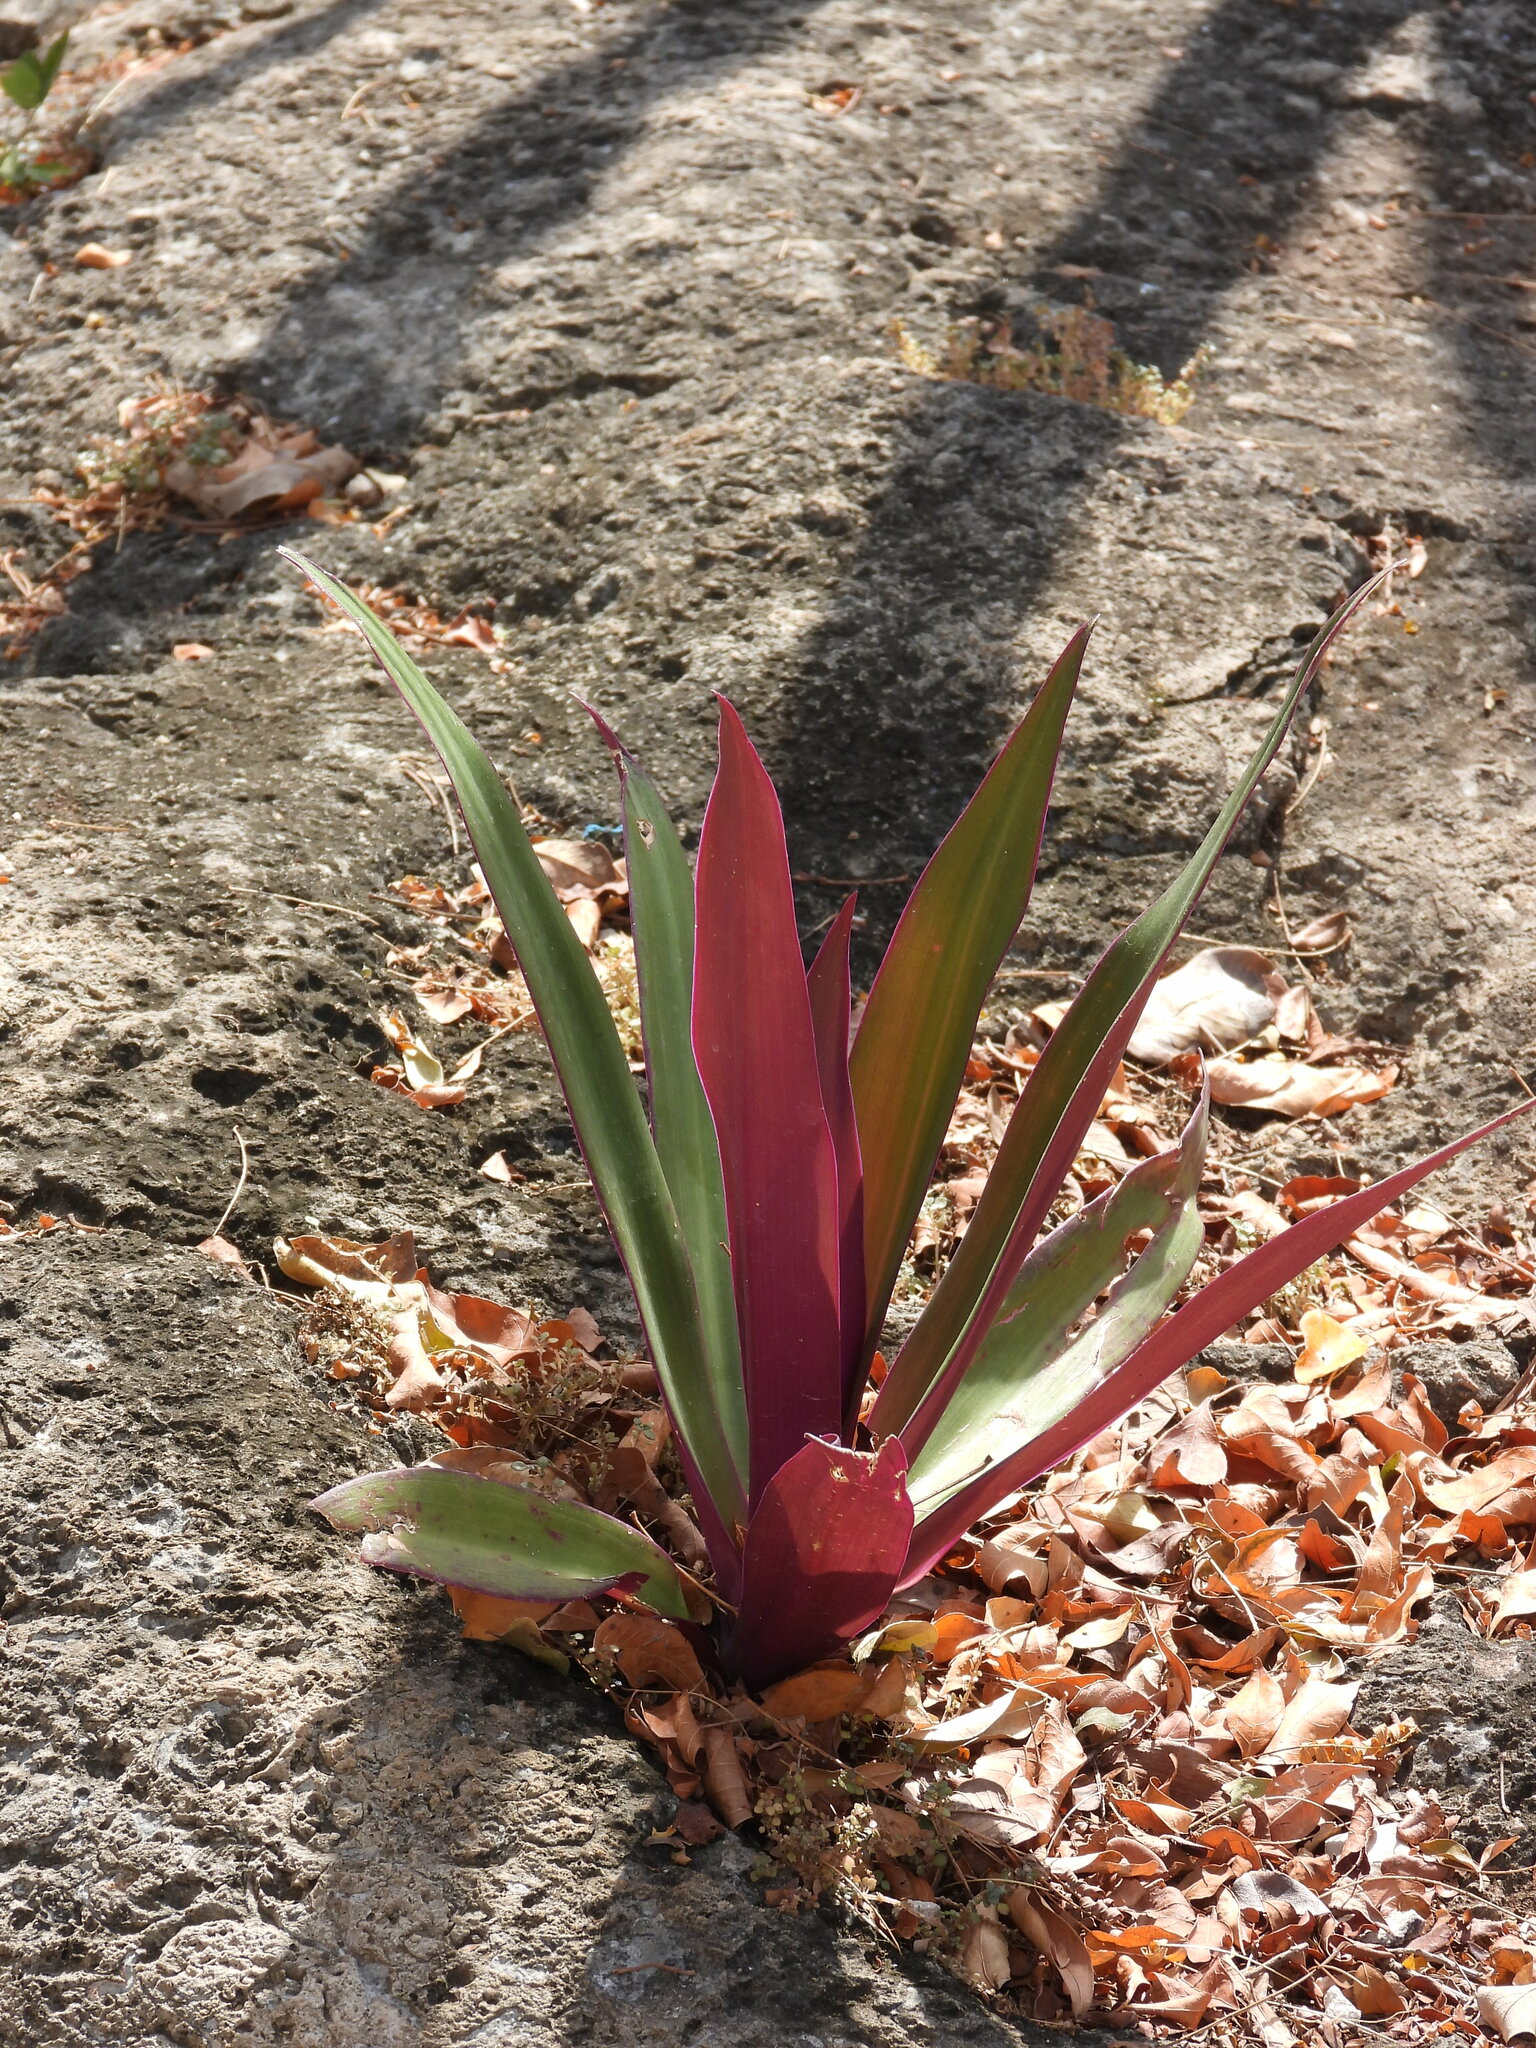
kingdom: Plantae
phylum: Tracheophyta
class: Liliopsida
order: Commelinales
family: Commelinaceae
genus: Tradescantia
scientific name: Tradescantia spathacea
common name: Boatlily
